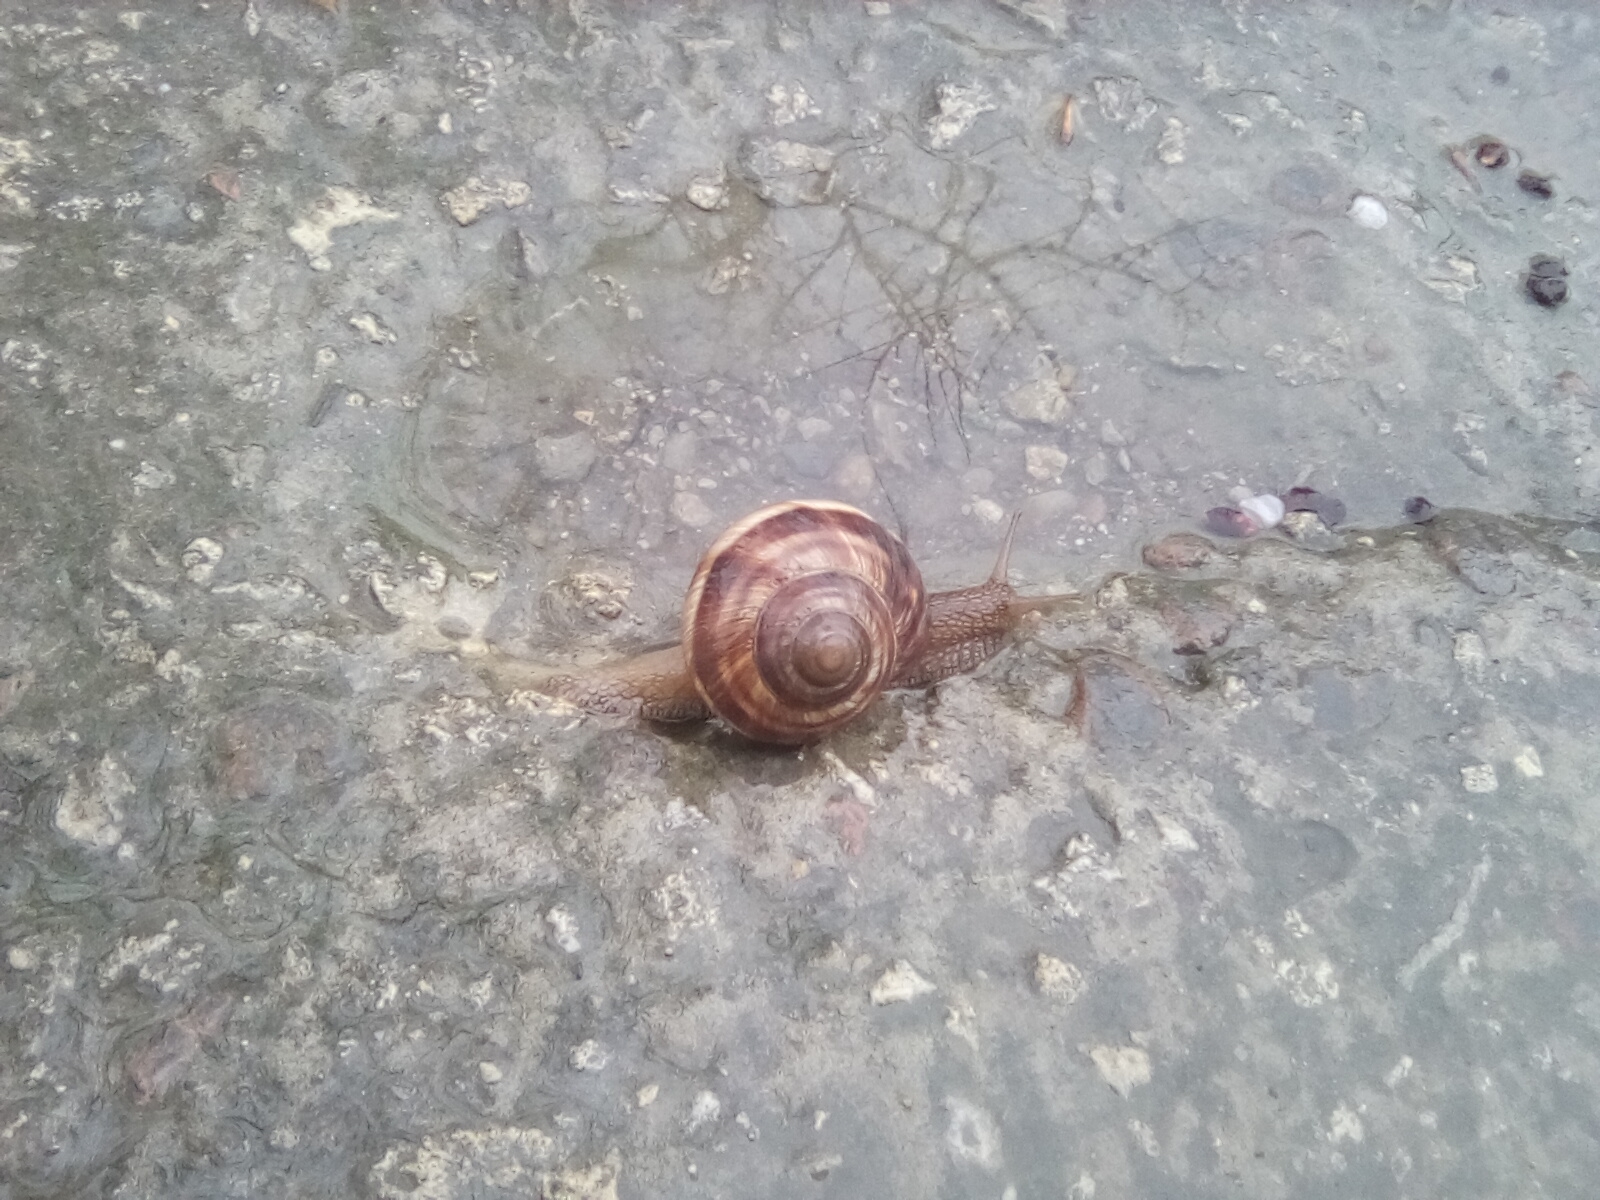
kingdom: Animalia
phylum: Mollusca
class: Gastropoda
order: Stylommatophora
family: Helicidae
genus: Helix
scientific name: Helix lucorum
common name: Turkish snail
